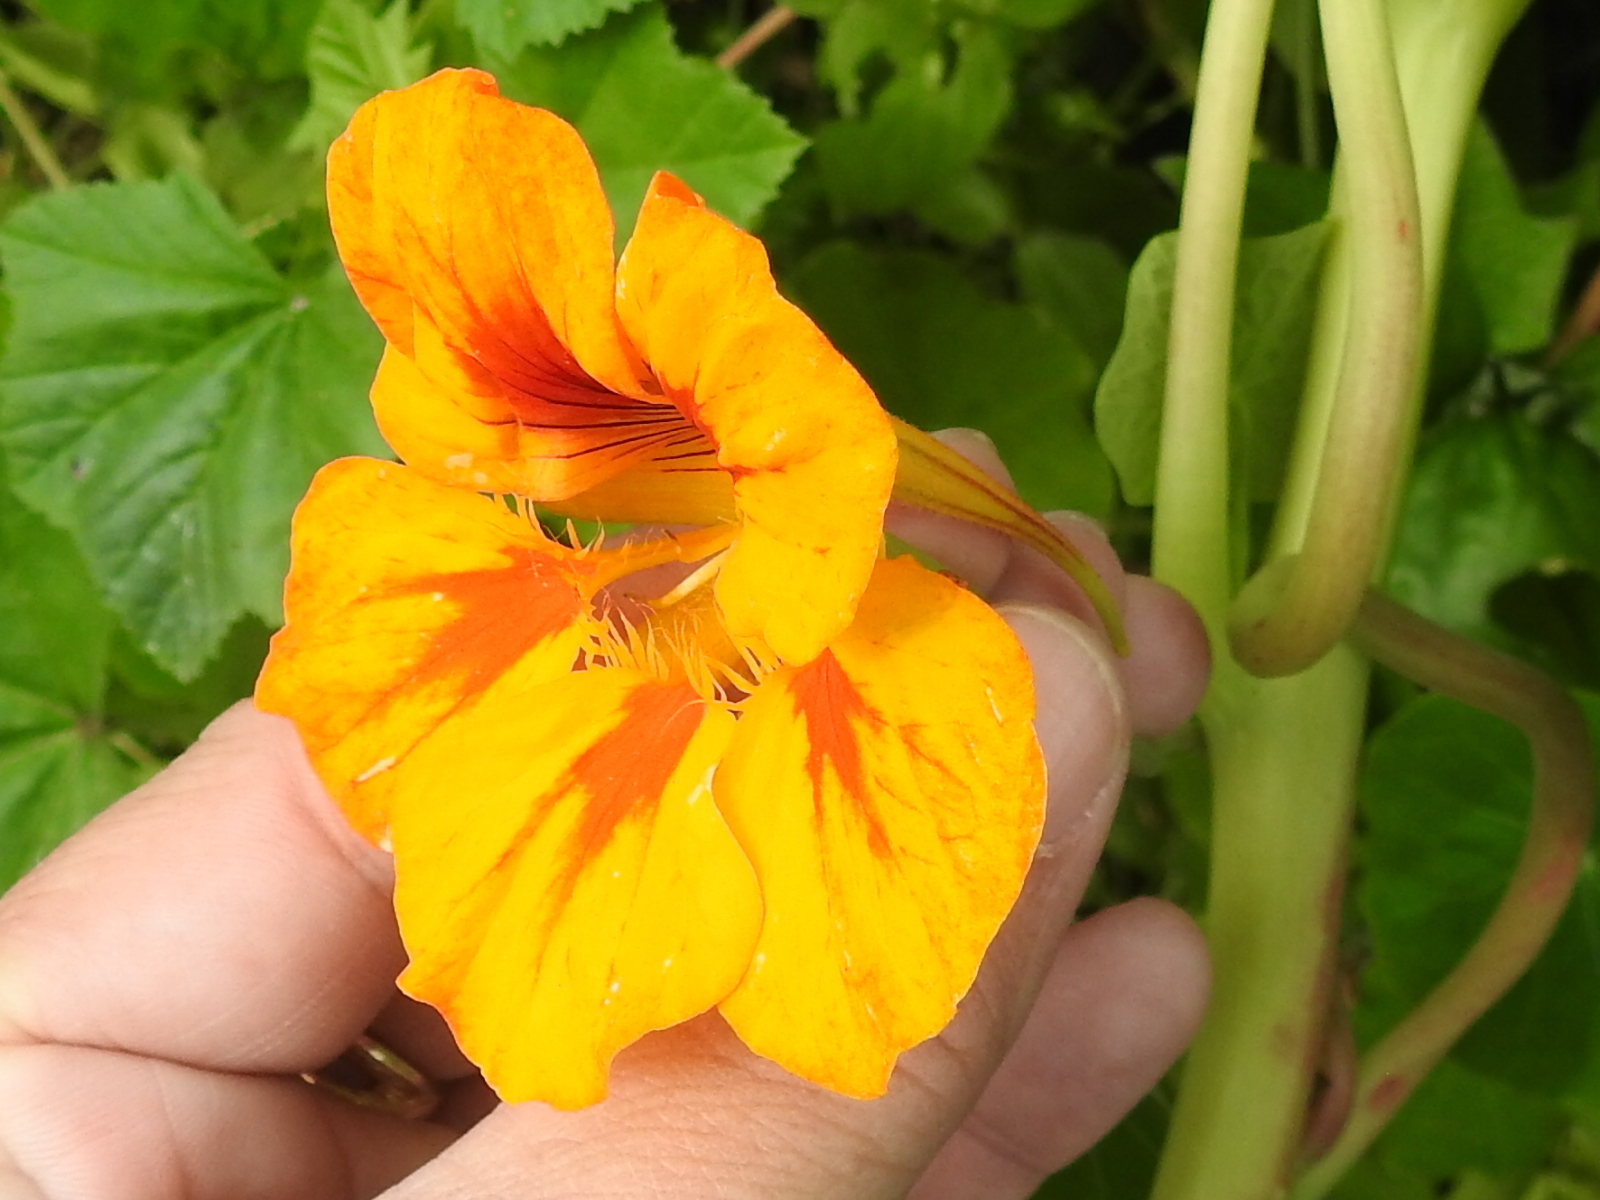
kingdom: Plantae
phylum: Tracheophyta
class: Magnoliopsida
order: Brassicales
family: Tropaeolaceae
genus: Tropaeolum
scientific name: Tropaeolum majus
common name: Nasturtium
